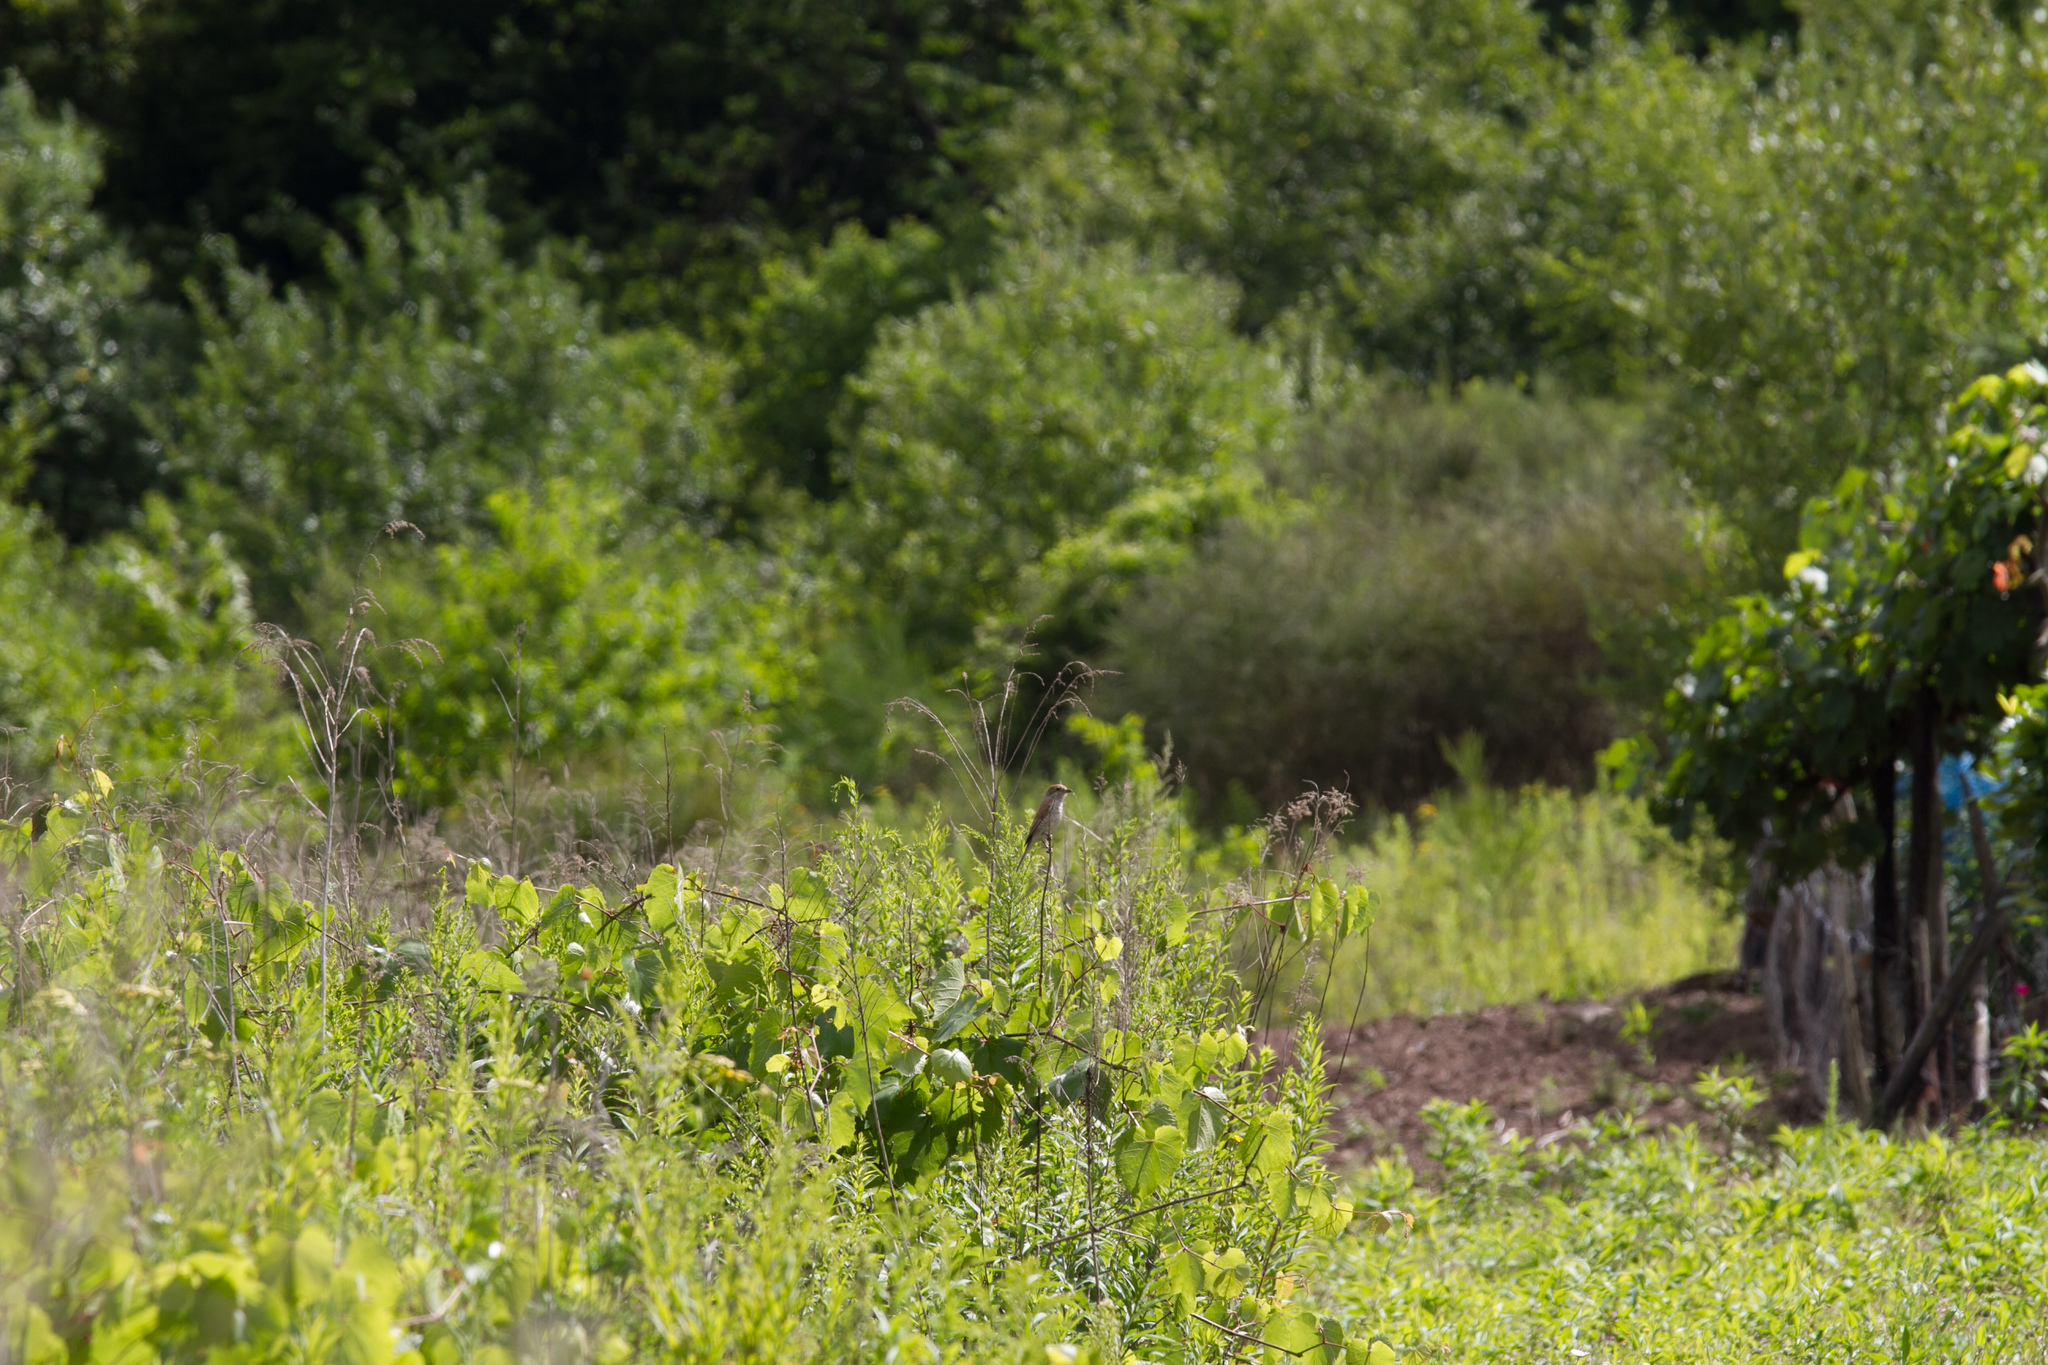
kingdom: Animalia
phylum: Chordata
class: Aves
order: Passeriformes
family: Laniidae
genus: Lanius
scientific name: Lanius collurio
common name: Red-backed shrike
